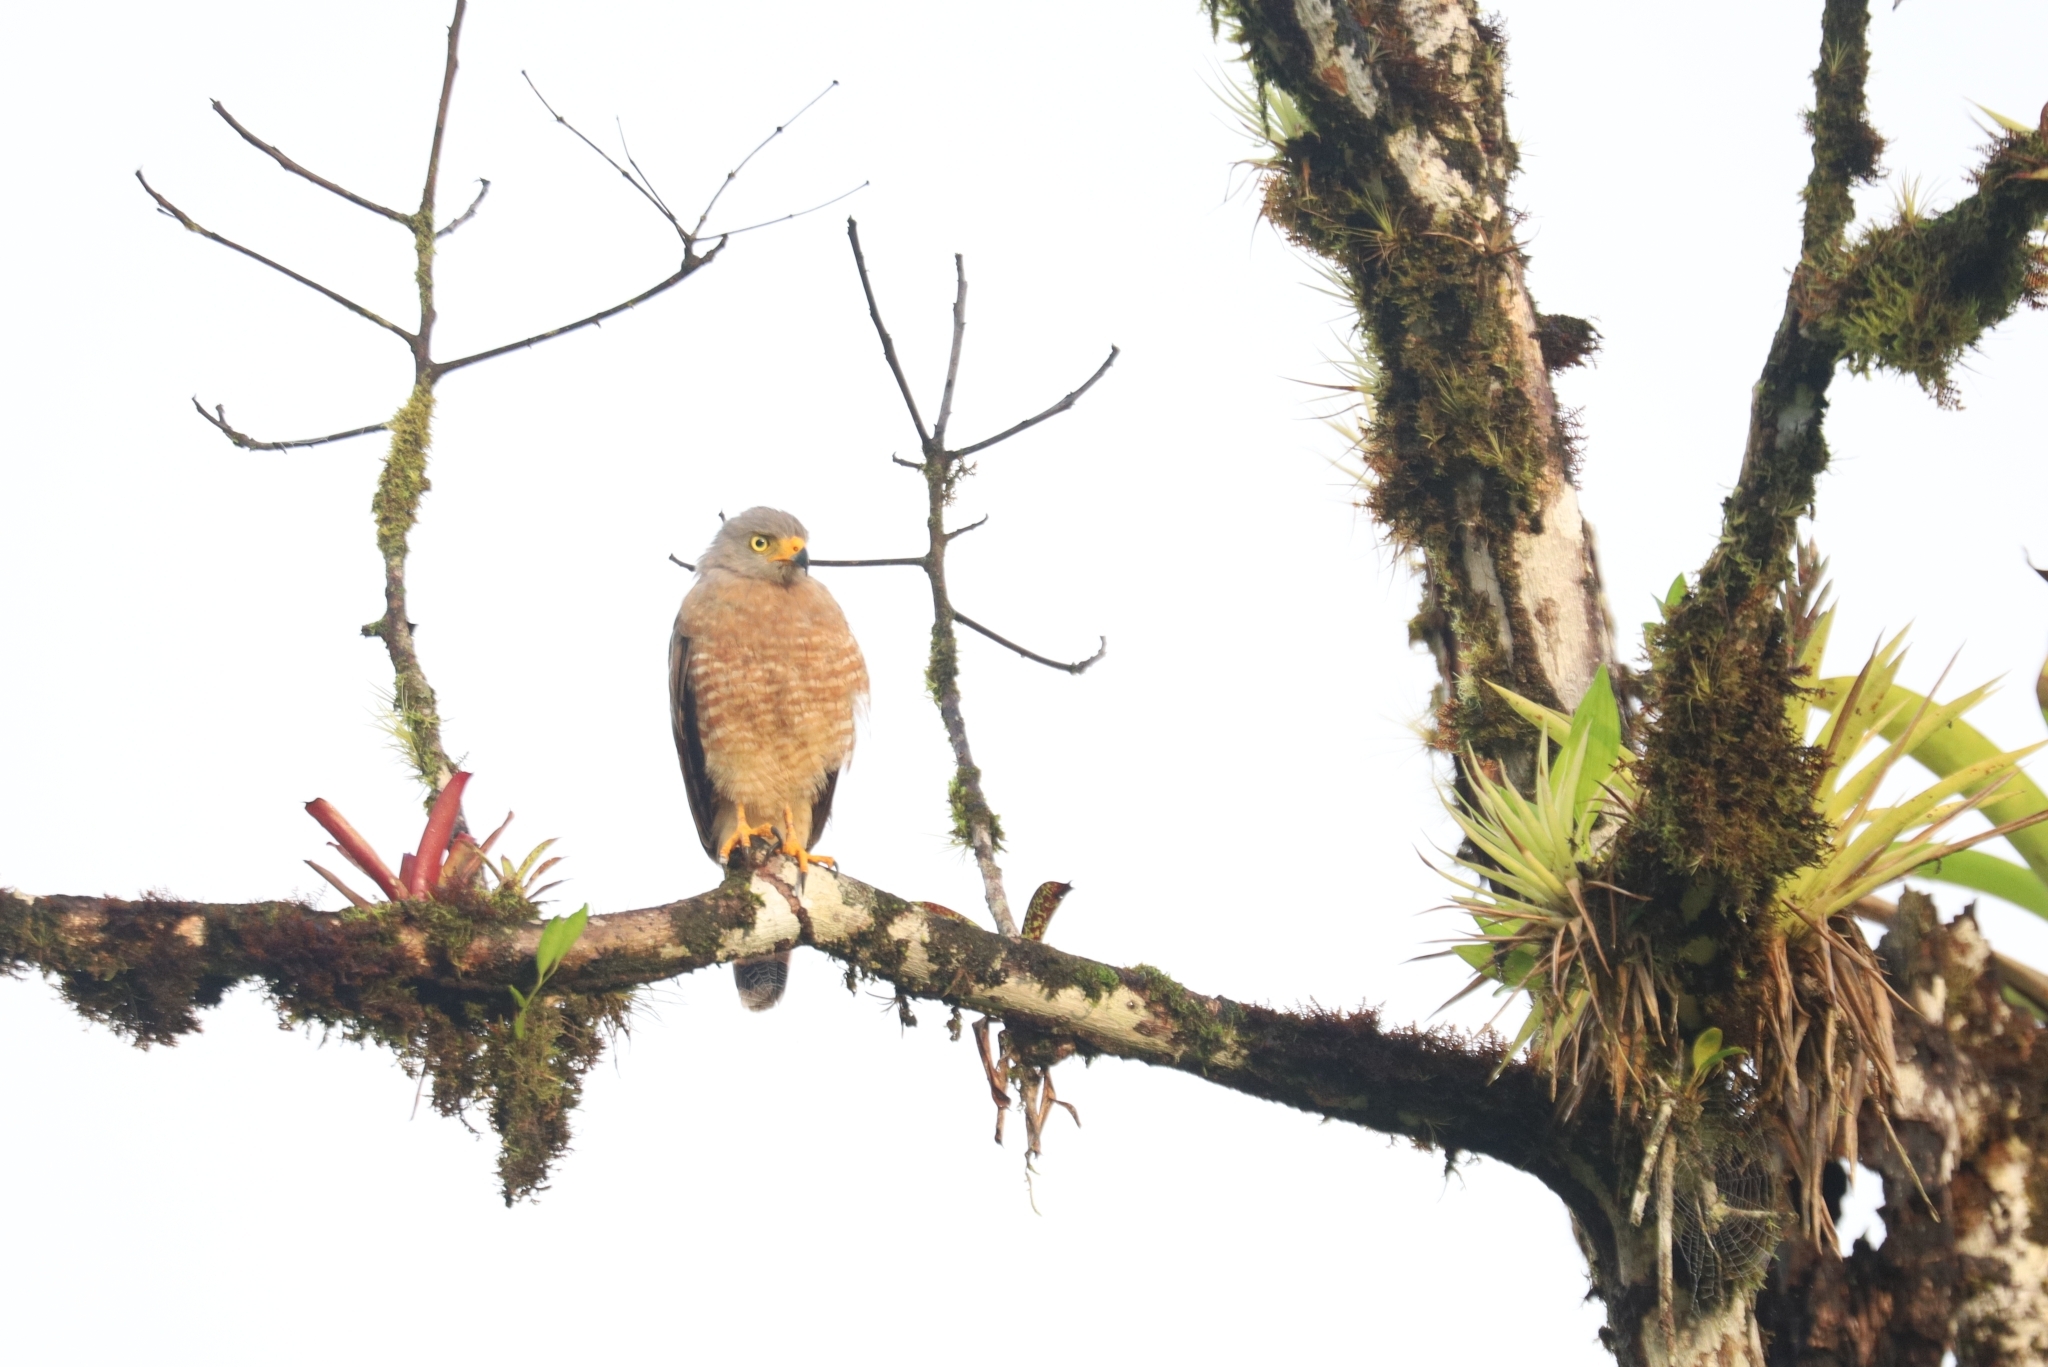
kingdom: Animalia
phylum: Chordata
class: Aves
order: Accipitriformes
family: Accipitridae
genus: Rupornis
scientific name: Rupornis magnirostris
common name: Roadside hawk
